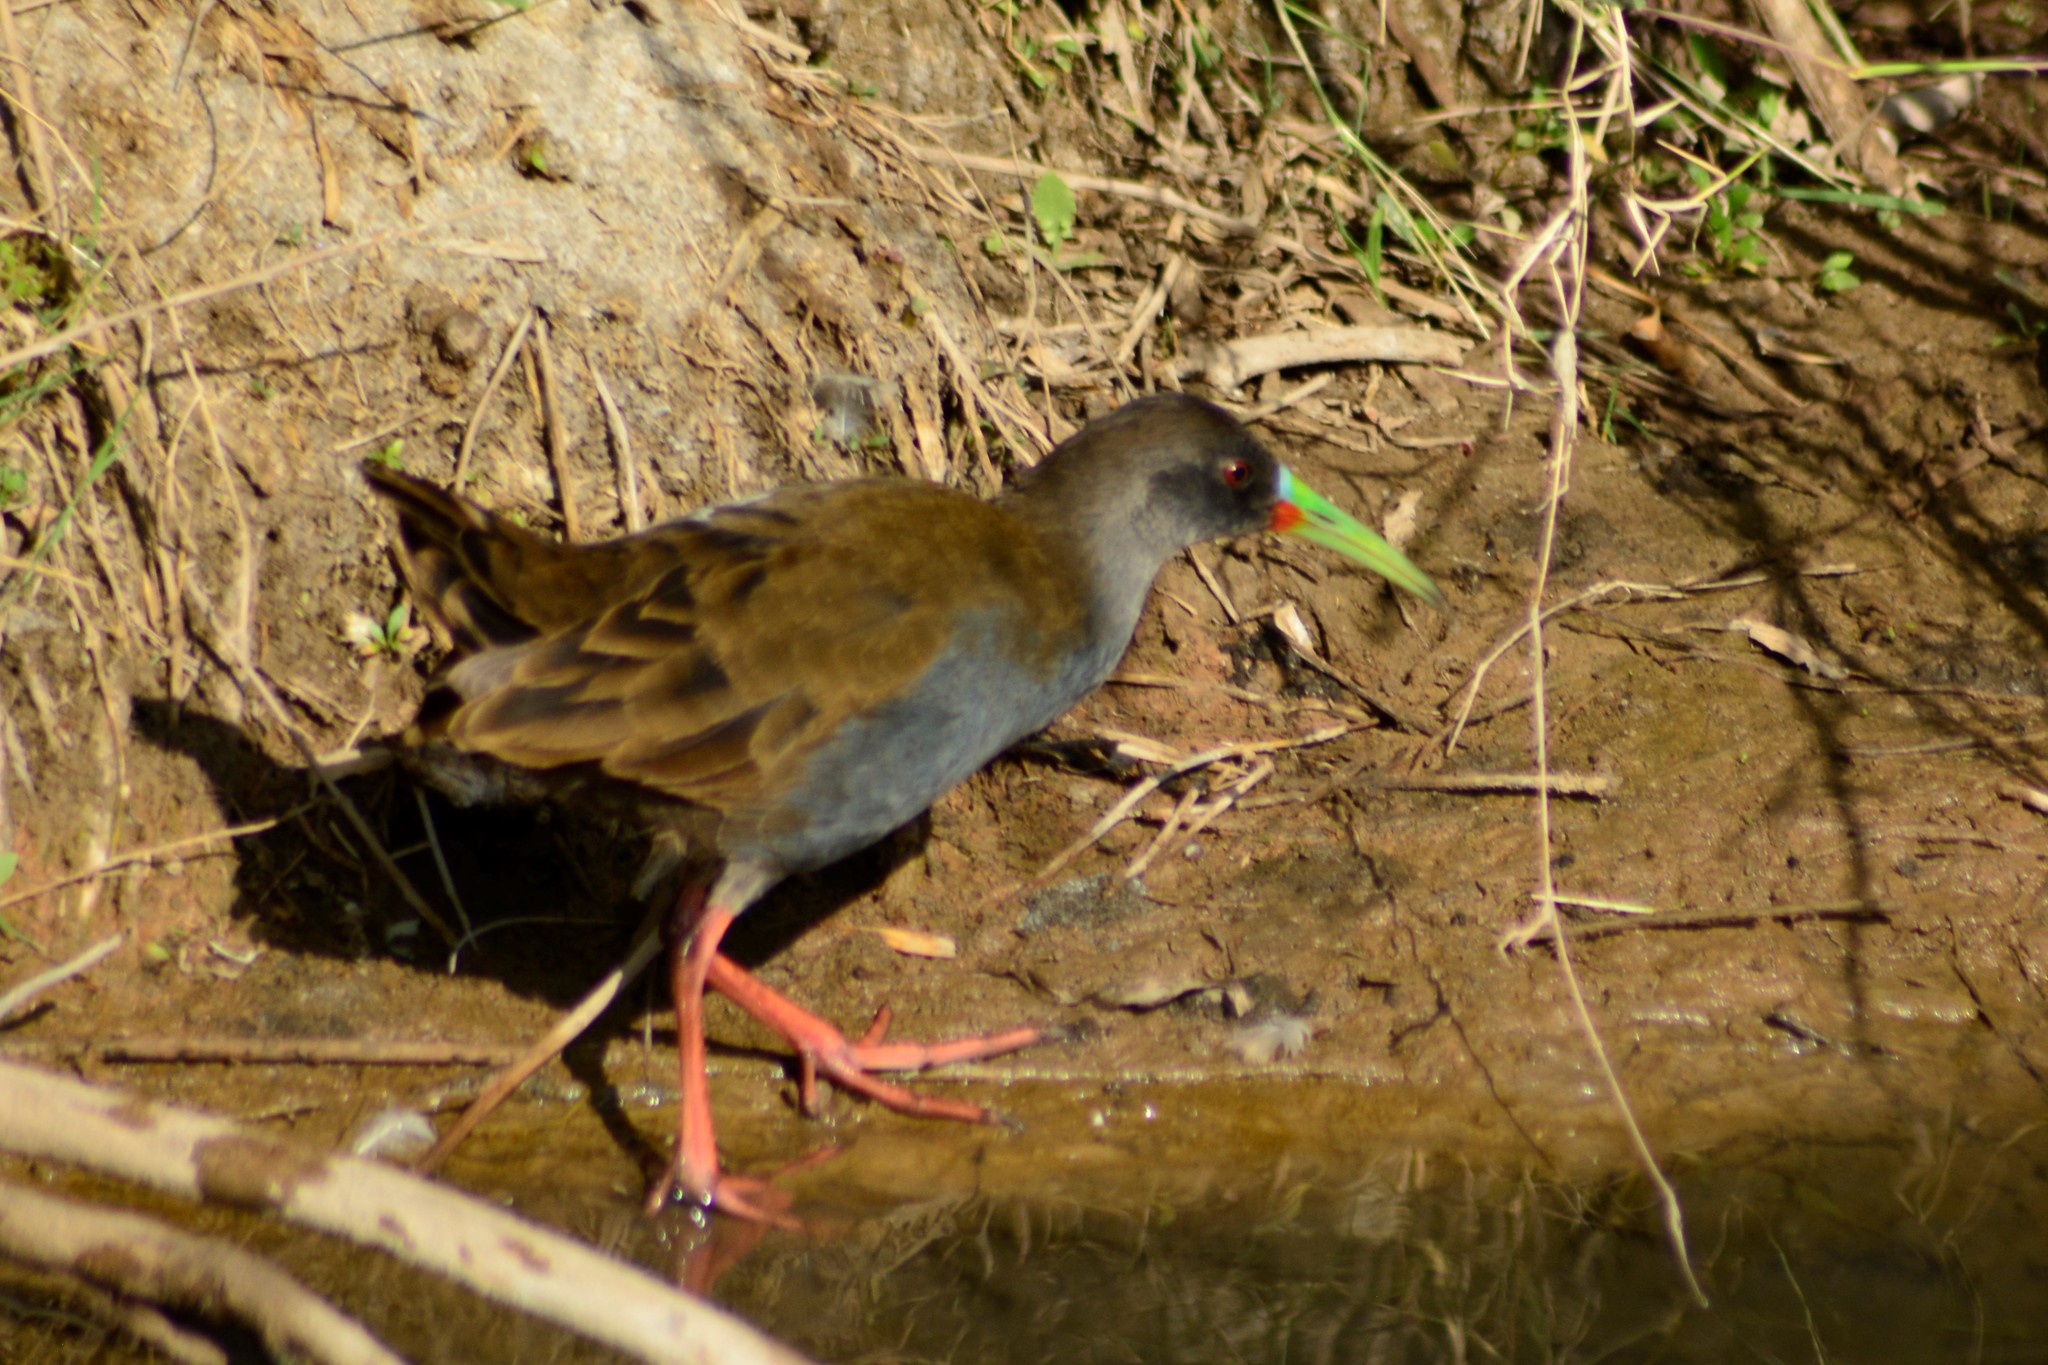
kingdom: Animalia
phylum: Chordata
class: Aves
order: Gruiformes
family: Rallidae
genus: Pardirallus
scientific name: Pardirallus sanguinolentus
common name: Plumbeous rail
